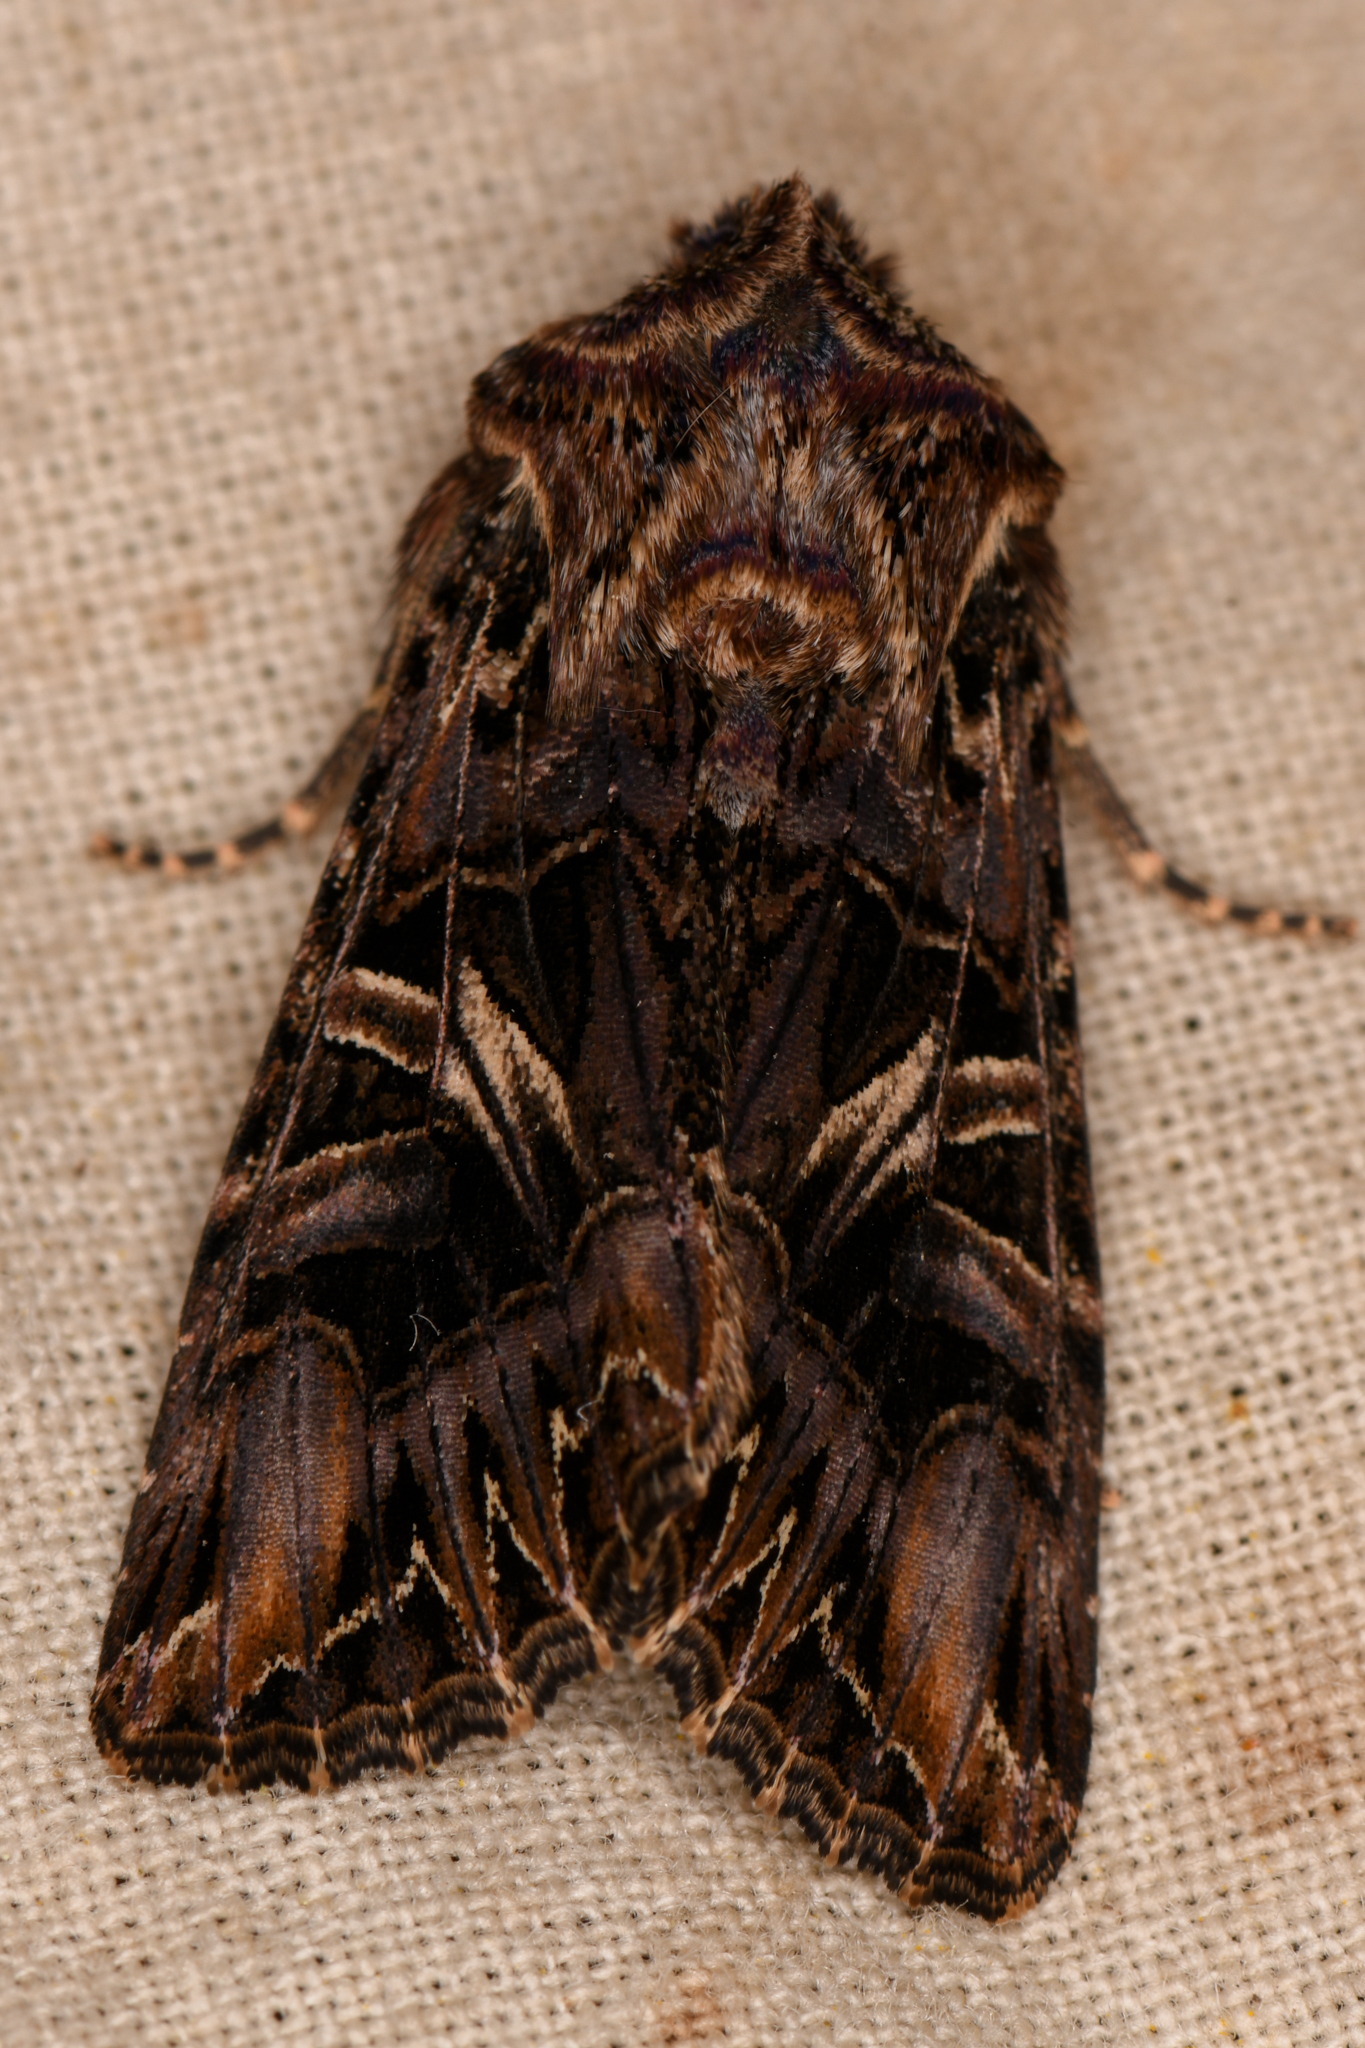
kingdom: Animalia
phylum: Arthropoda
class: Insecta
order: Lepidoptera
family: Noctuidae
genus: Anarta
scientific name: Anarta farnhami
